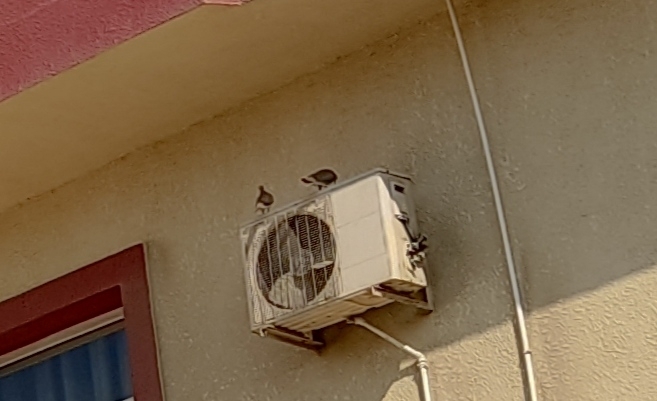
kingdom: Animalia
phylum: Chordata
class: Aves
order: Columbiformes
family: Columbidae
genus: Spilopelia
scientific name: Spilopelia senegalensis
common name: Laughing dove
